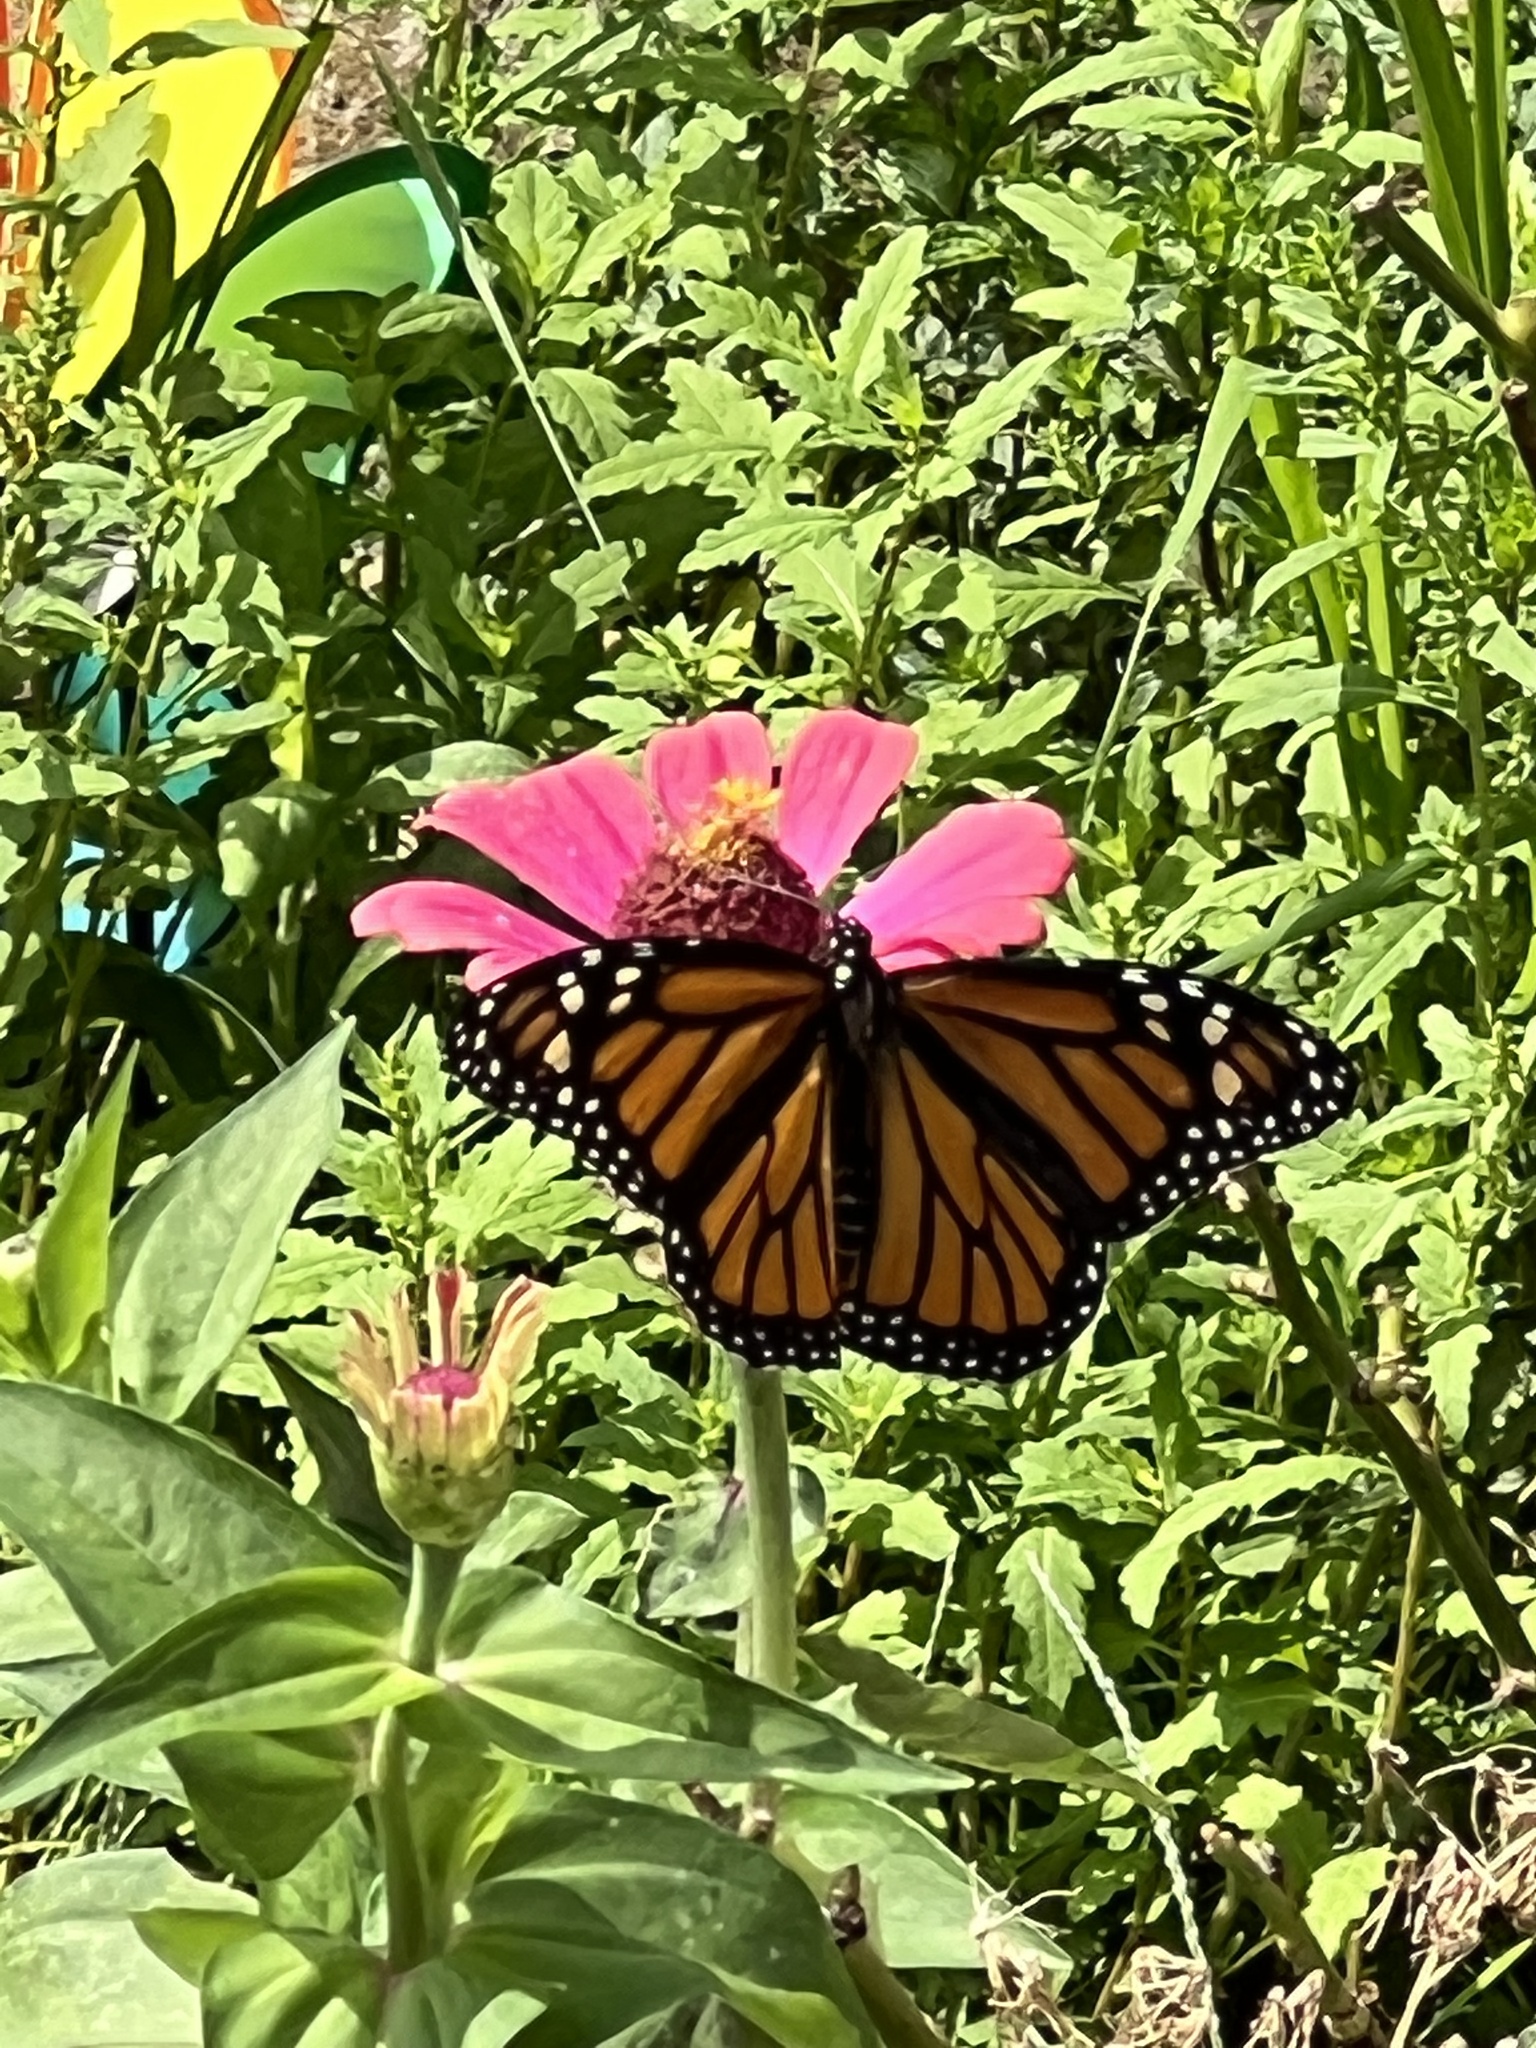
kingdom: Animalia
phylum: Arthropoda
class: Insecta
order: Lepidoptera
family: Nymphalidae
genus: Danaus
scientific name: Danaus plexippus
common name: Monarch
